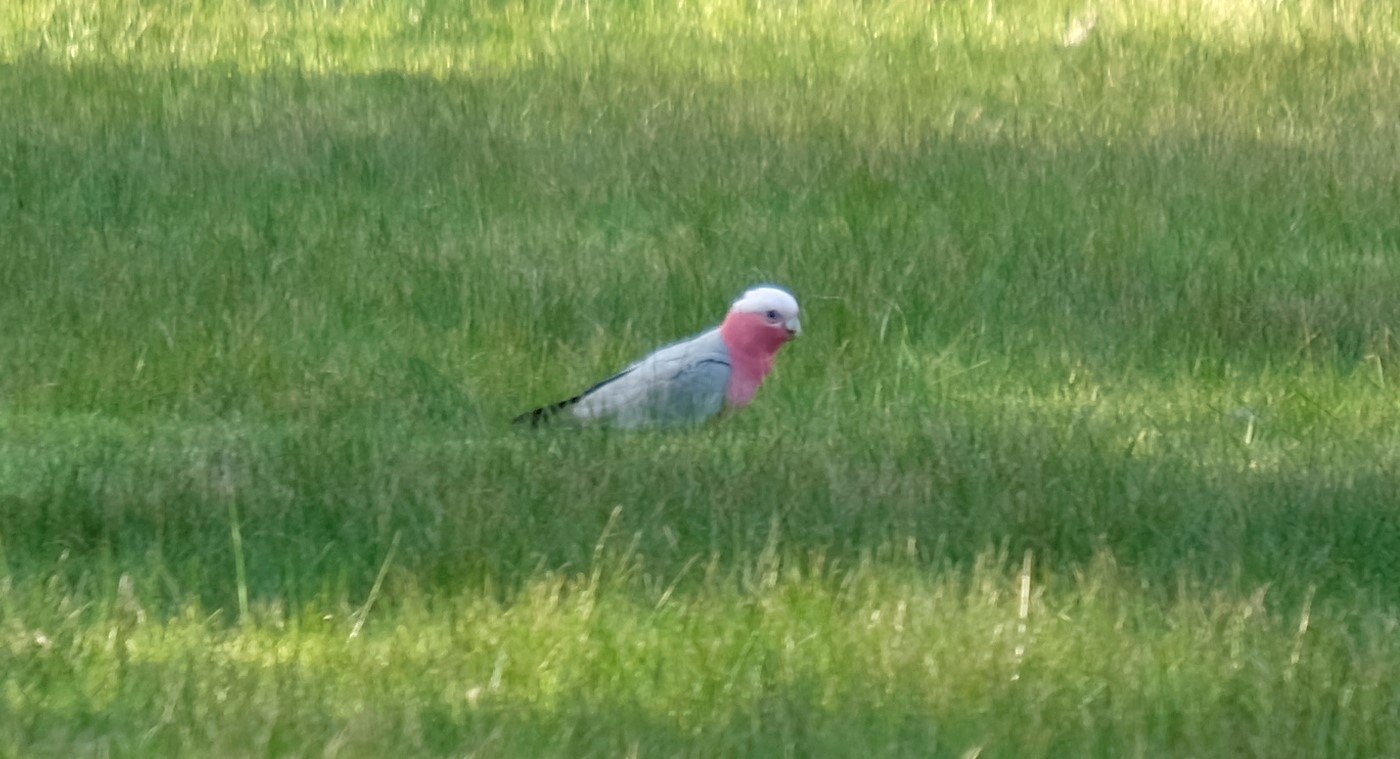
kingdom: Animalia
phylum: Chordata
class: Aves
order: Psittaciformes
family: Psittacidae
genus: Eolophus
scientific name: Eolophus roseicapilla
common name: Galah
